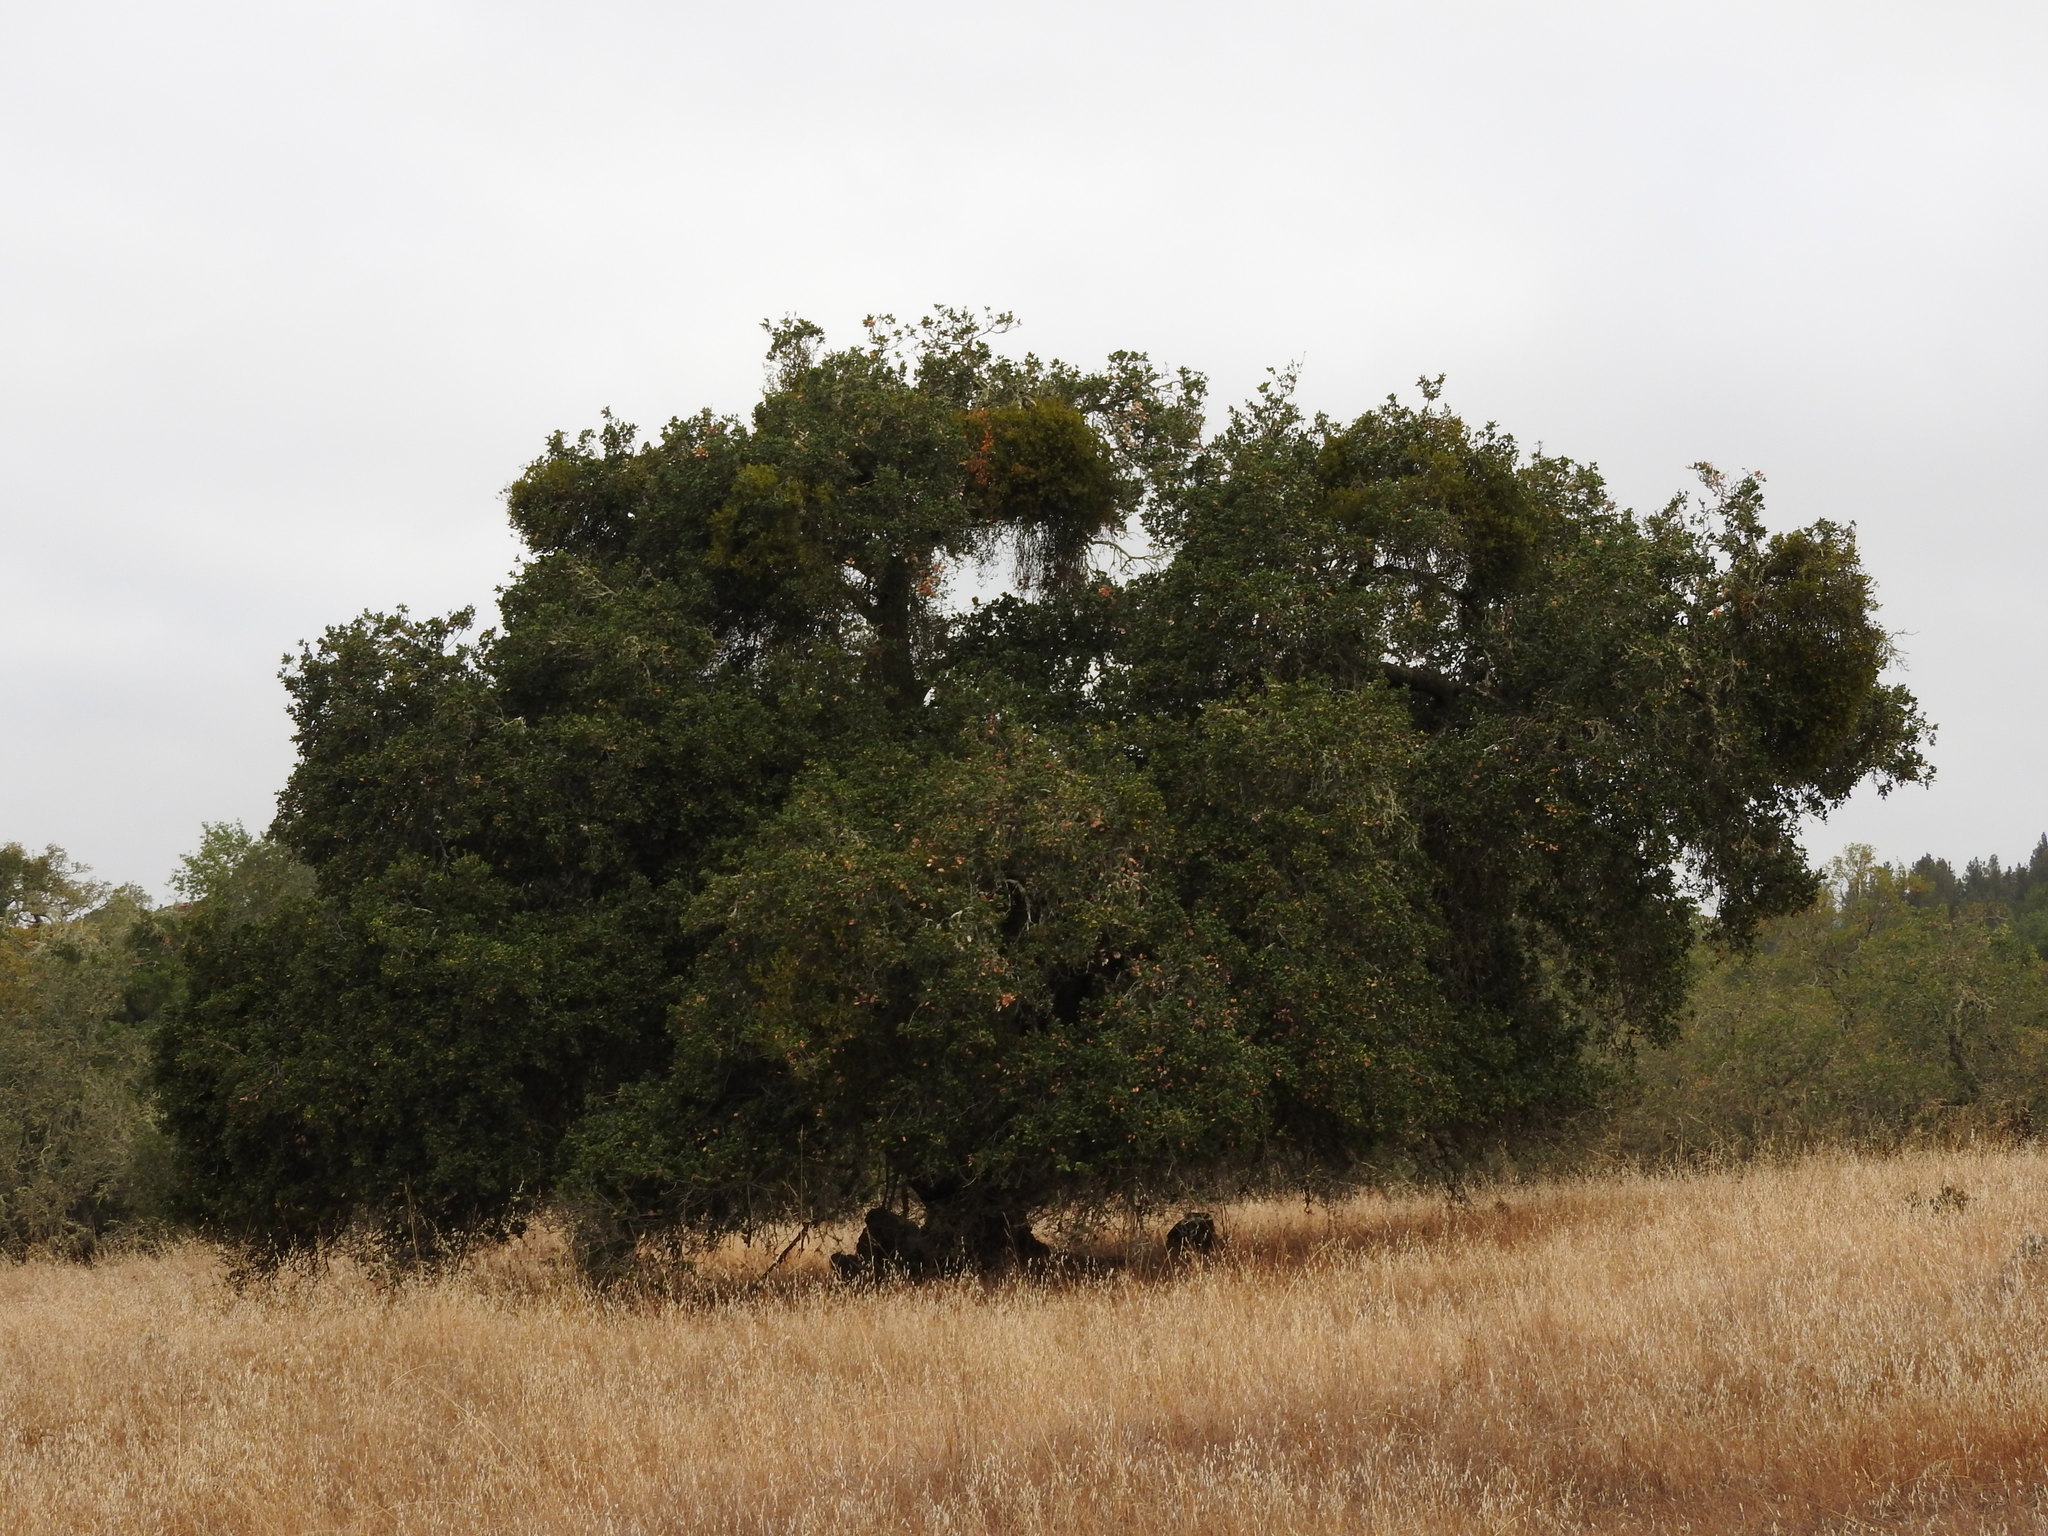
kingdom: Plantae
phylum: Tracheophyta
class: Magnoliopsida
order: Fagales
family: Fagaceae
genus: Quercus
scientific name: Quercus agrifolia
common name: California live oak
